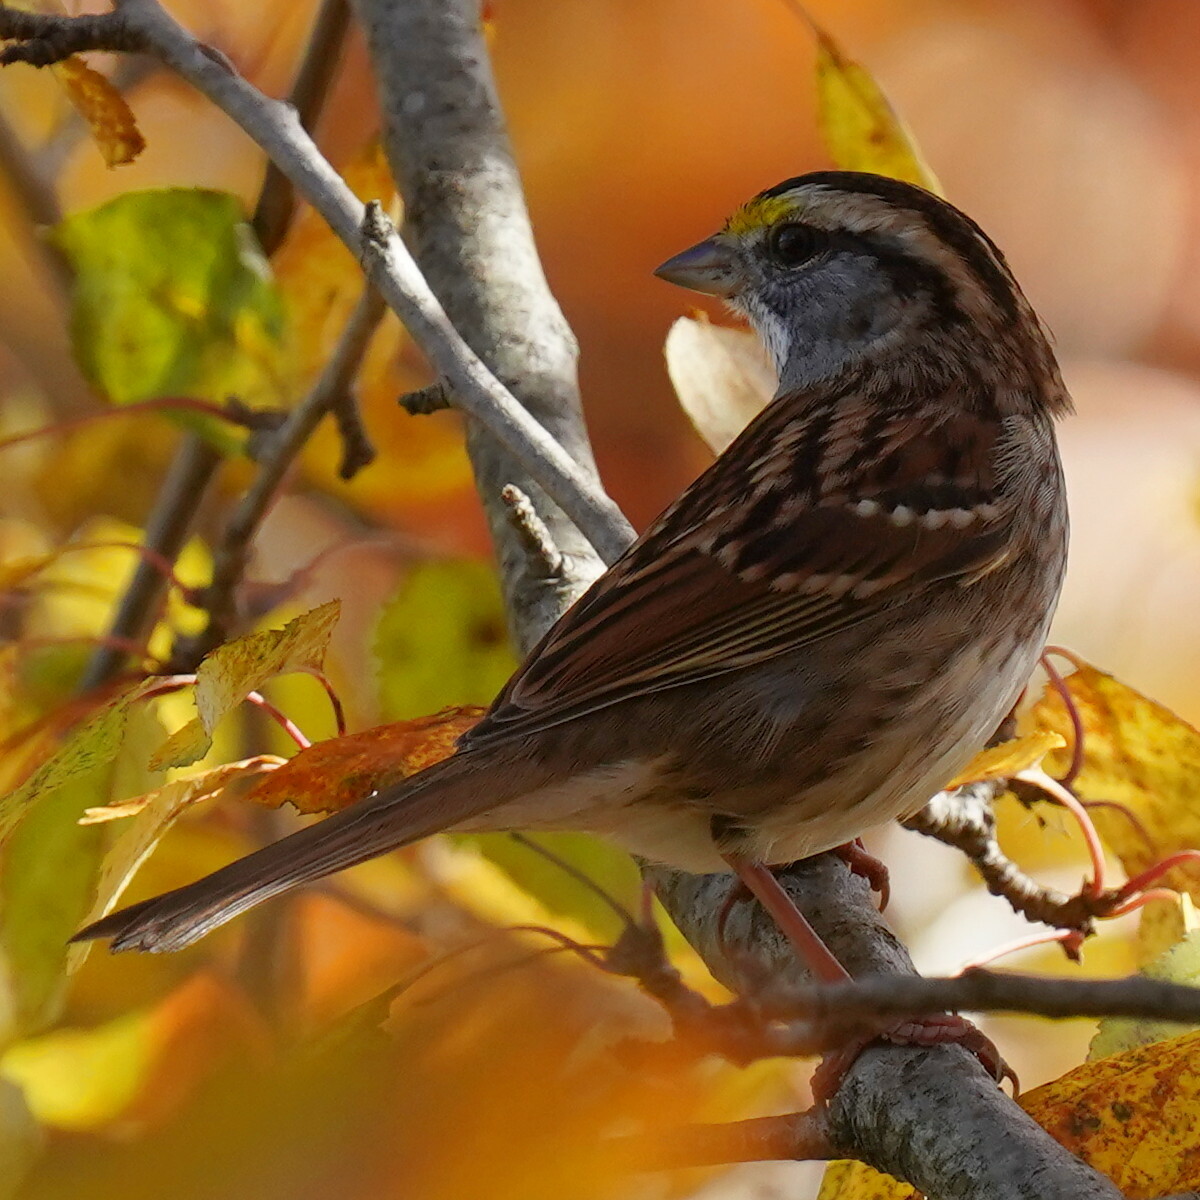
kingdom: Animalia
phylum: Chordata
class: Aves
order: Passeriformes
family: Passerellidae
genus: Zonotrichia
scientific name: Zonotrichia albicollis
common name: White-throated sparrow
